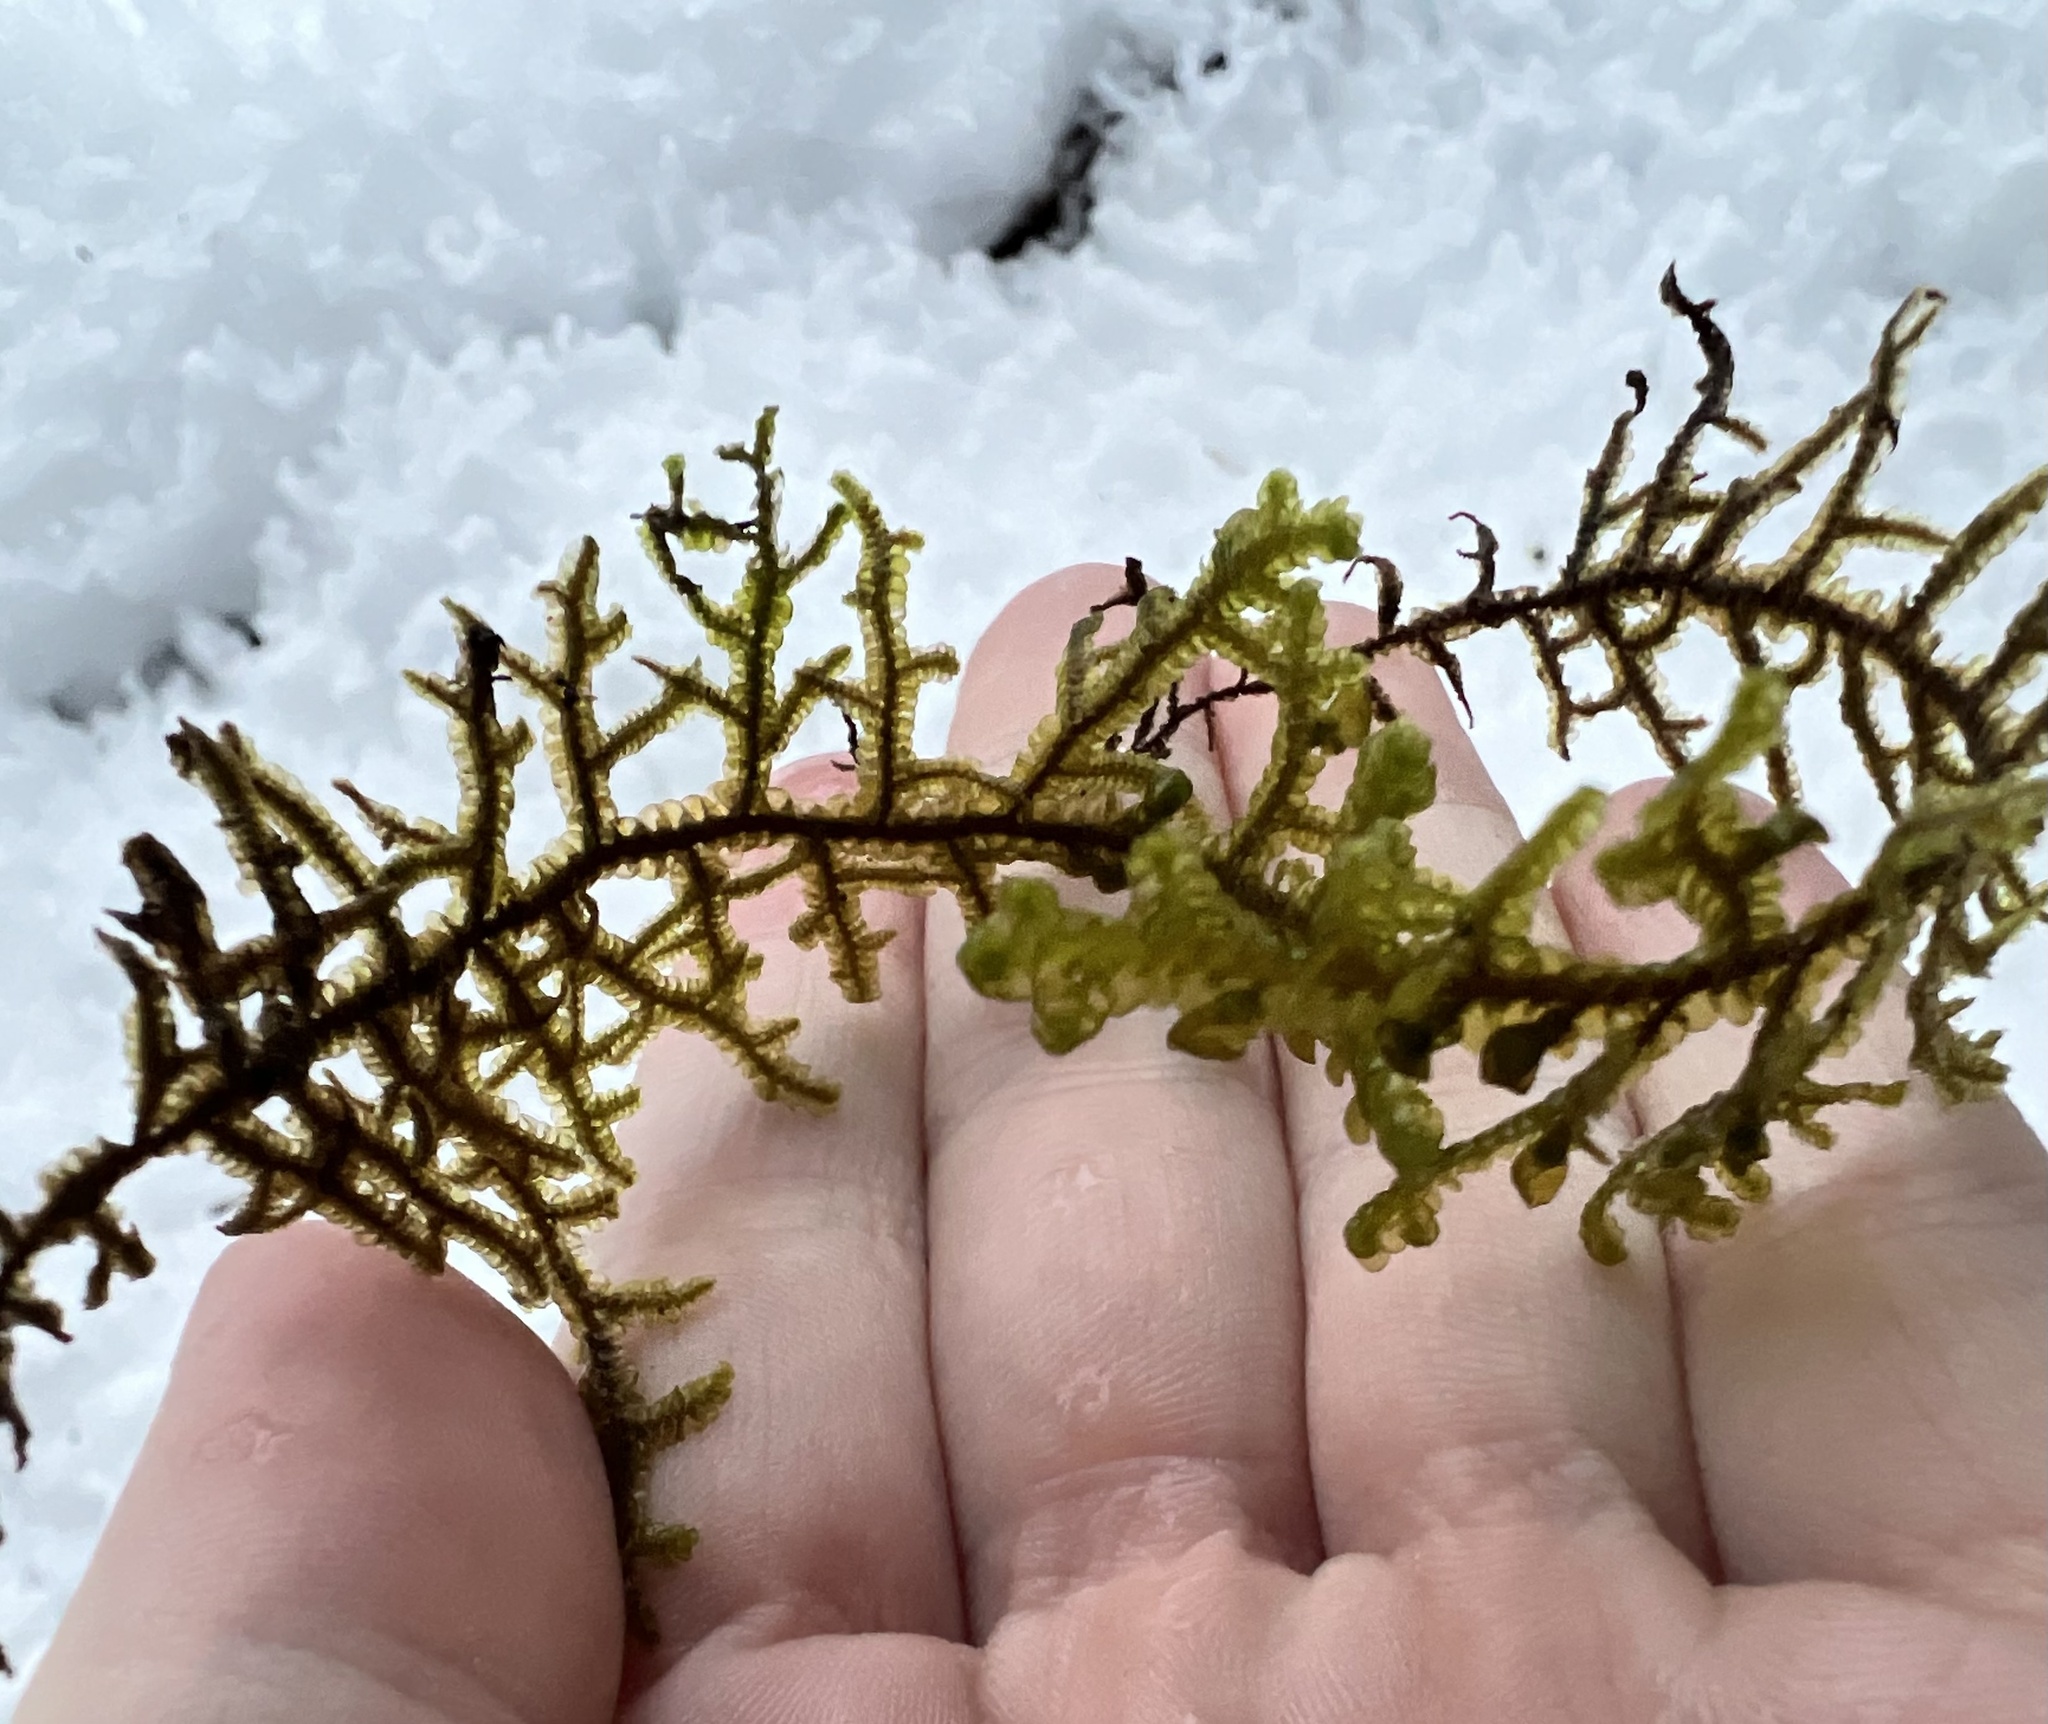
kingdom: Plantae
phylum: Marchantiophyta
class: Jungermanniopsida
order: Porellales
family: Porellaceae
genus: Porella
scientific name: Porella navicularis
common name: Tree ruffle liverwort
